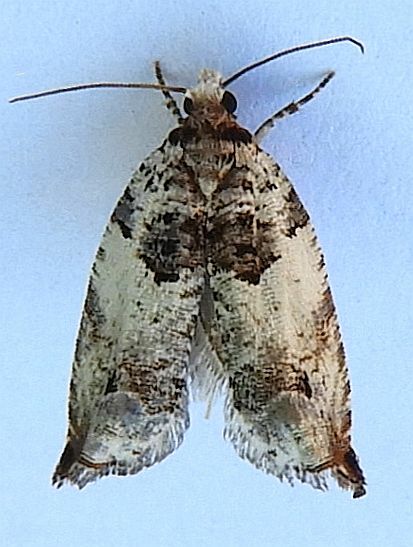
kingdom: Animalia
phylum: Arthropoda
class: Insecta
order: Lepidoptera
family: Tortricidae
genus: Rhopobota
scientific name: Rhopobota dietziana
